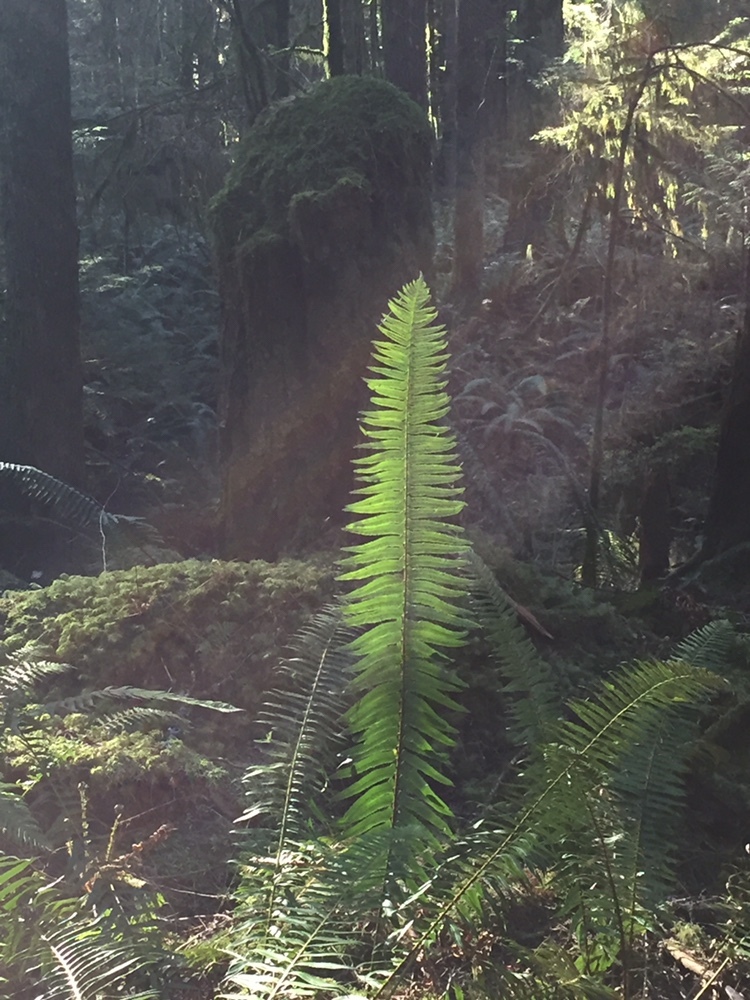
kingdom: Plantae
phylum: Tracheophyta
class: Polypodiopsida
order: Polypodiales
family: Dryopteridaceae
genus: Polystichum
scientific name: Polystichum munitum
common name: Western sword-fern
